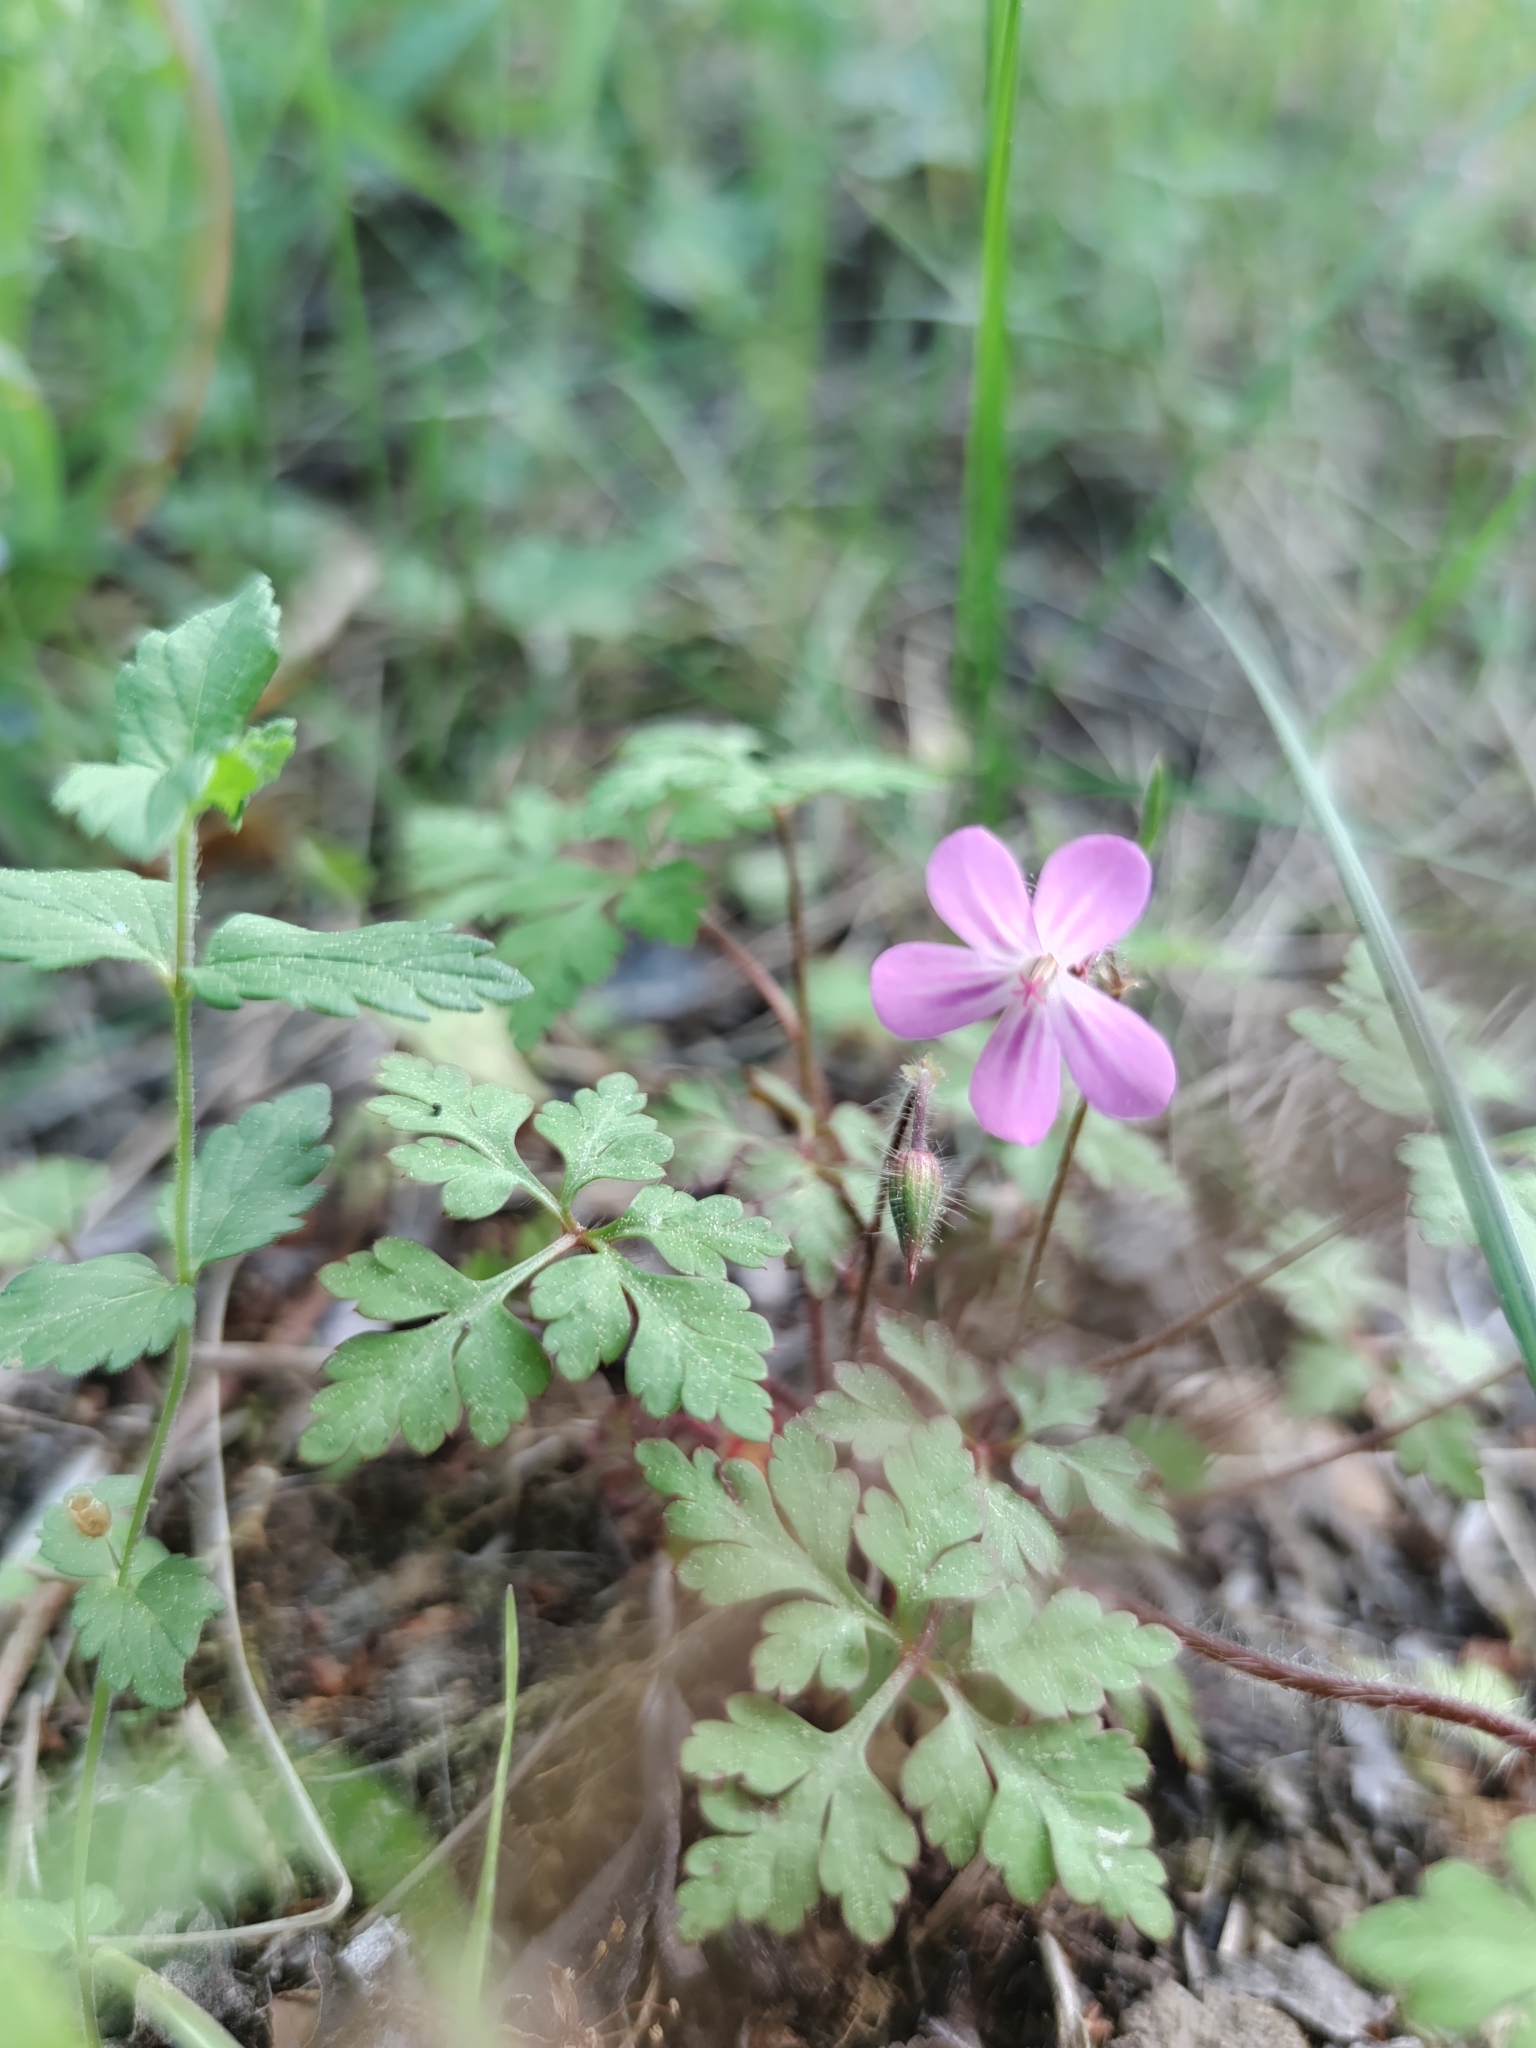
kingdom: Plantae
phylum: Tracheophyta
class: Magnoliopsida
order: Geraniales
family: Geraniaceae
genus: Geranium
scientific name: Geranium robertianum
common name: Herb-robert
